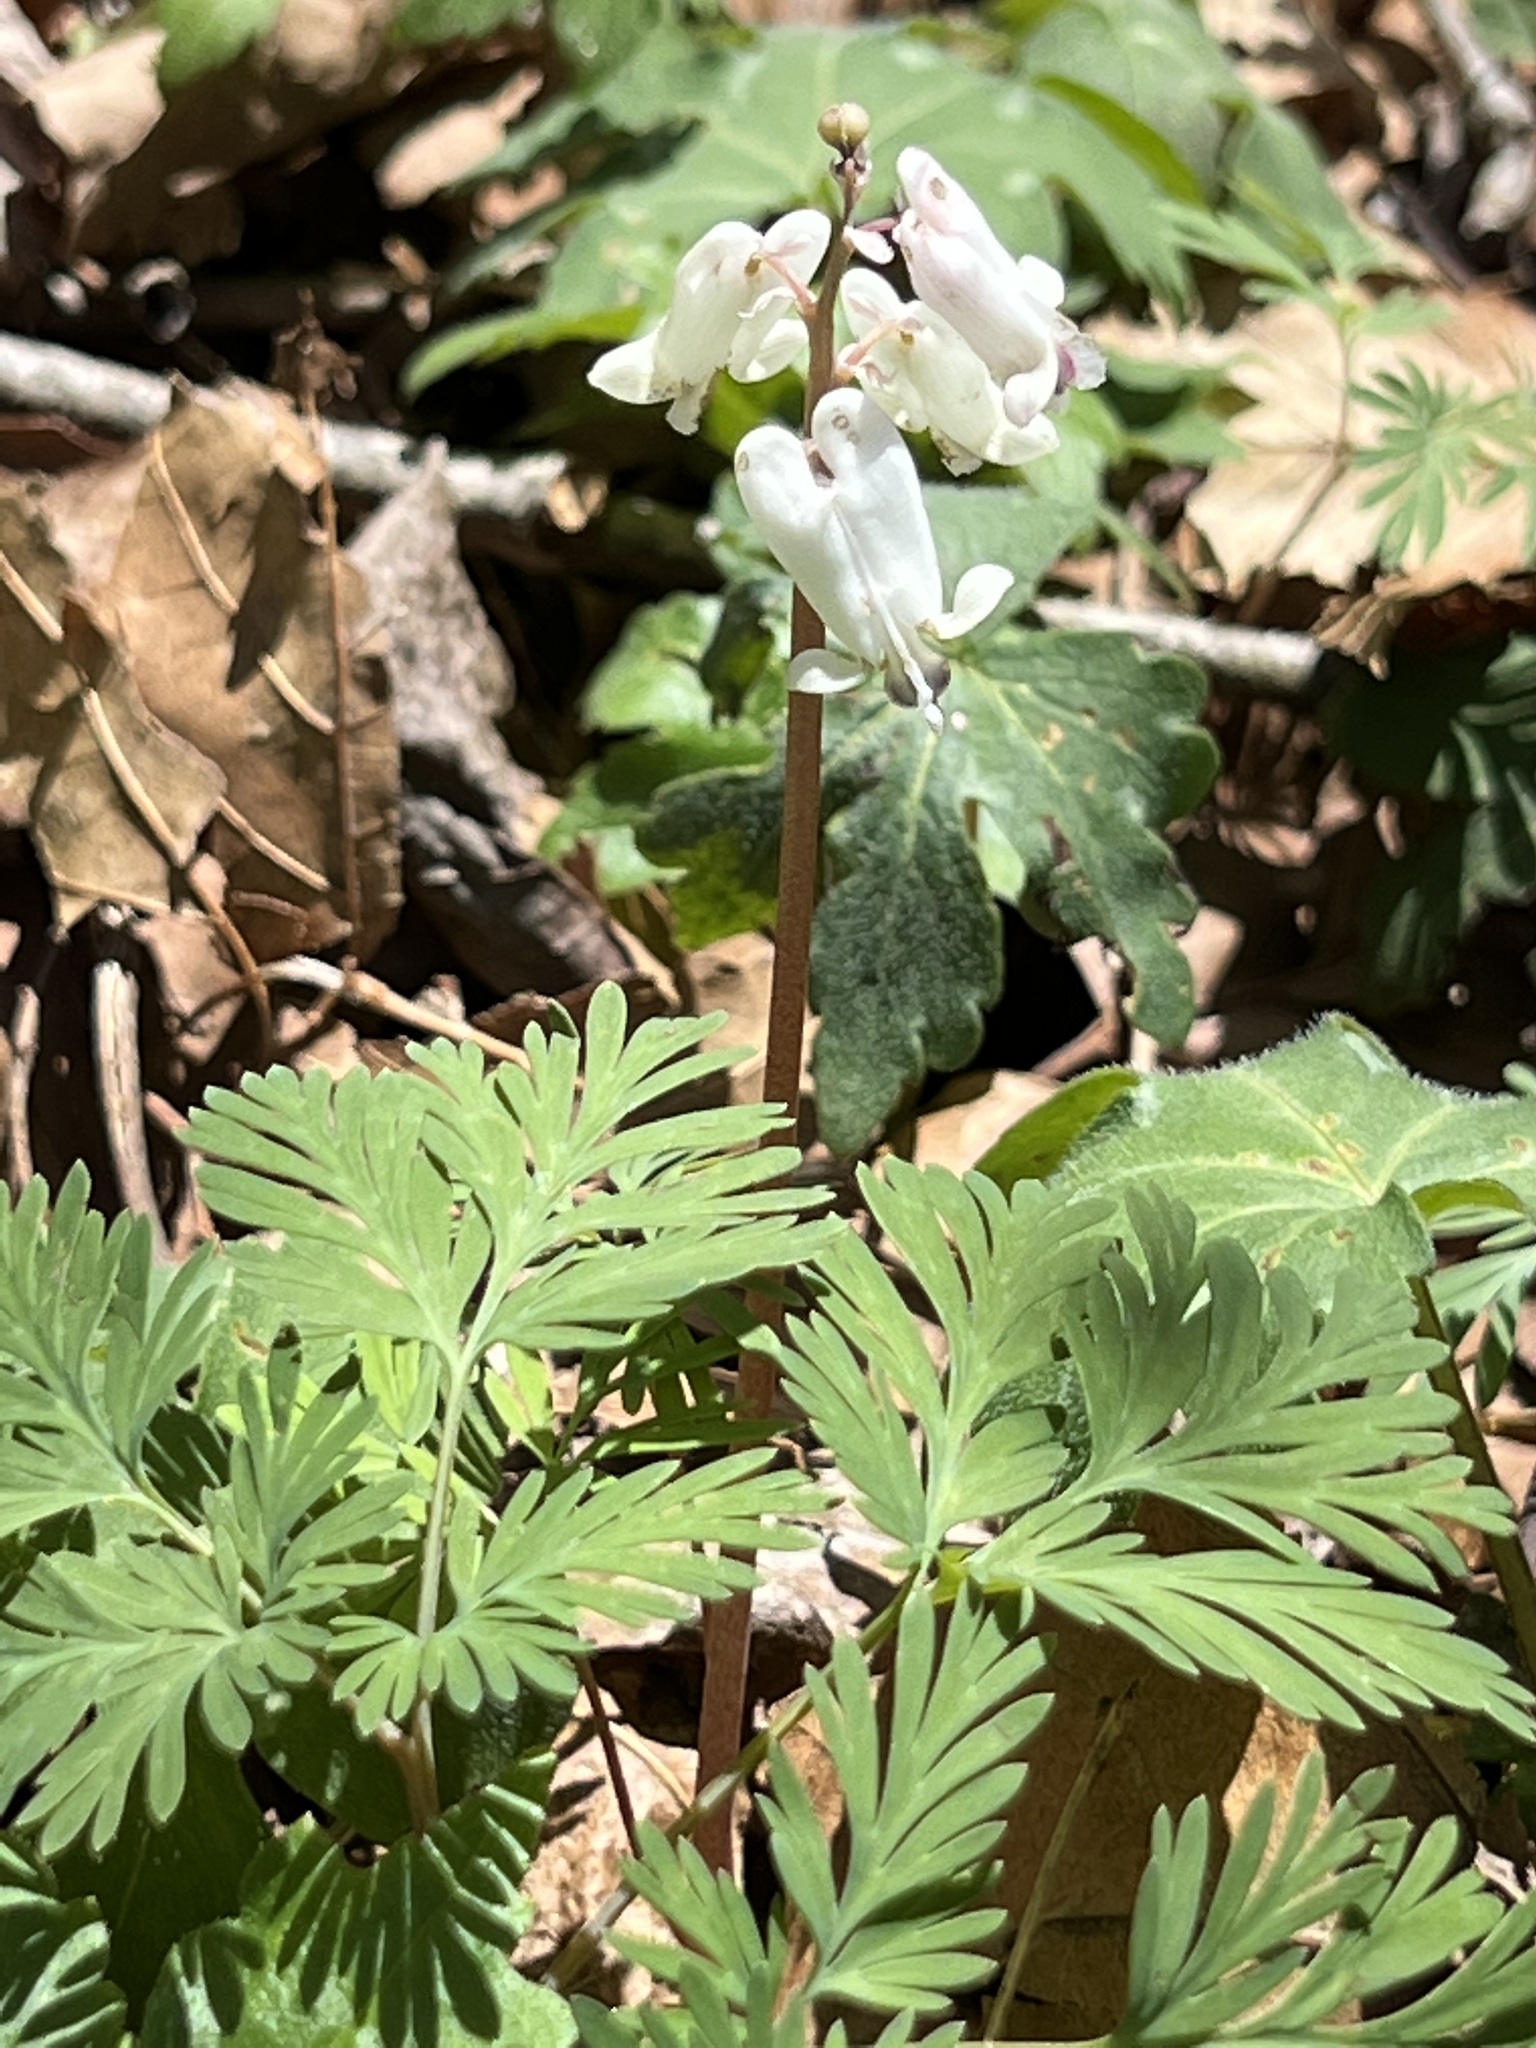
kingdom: Plantae
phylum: Tracheophyta
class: Magnoliopsida
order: Ranunculales
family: Papaveraceae
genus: Dicentra
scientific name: Dicentra canadensis
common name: Squirrel-corn
